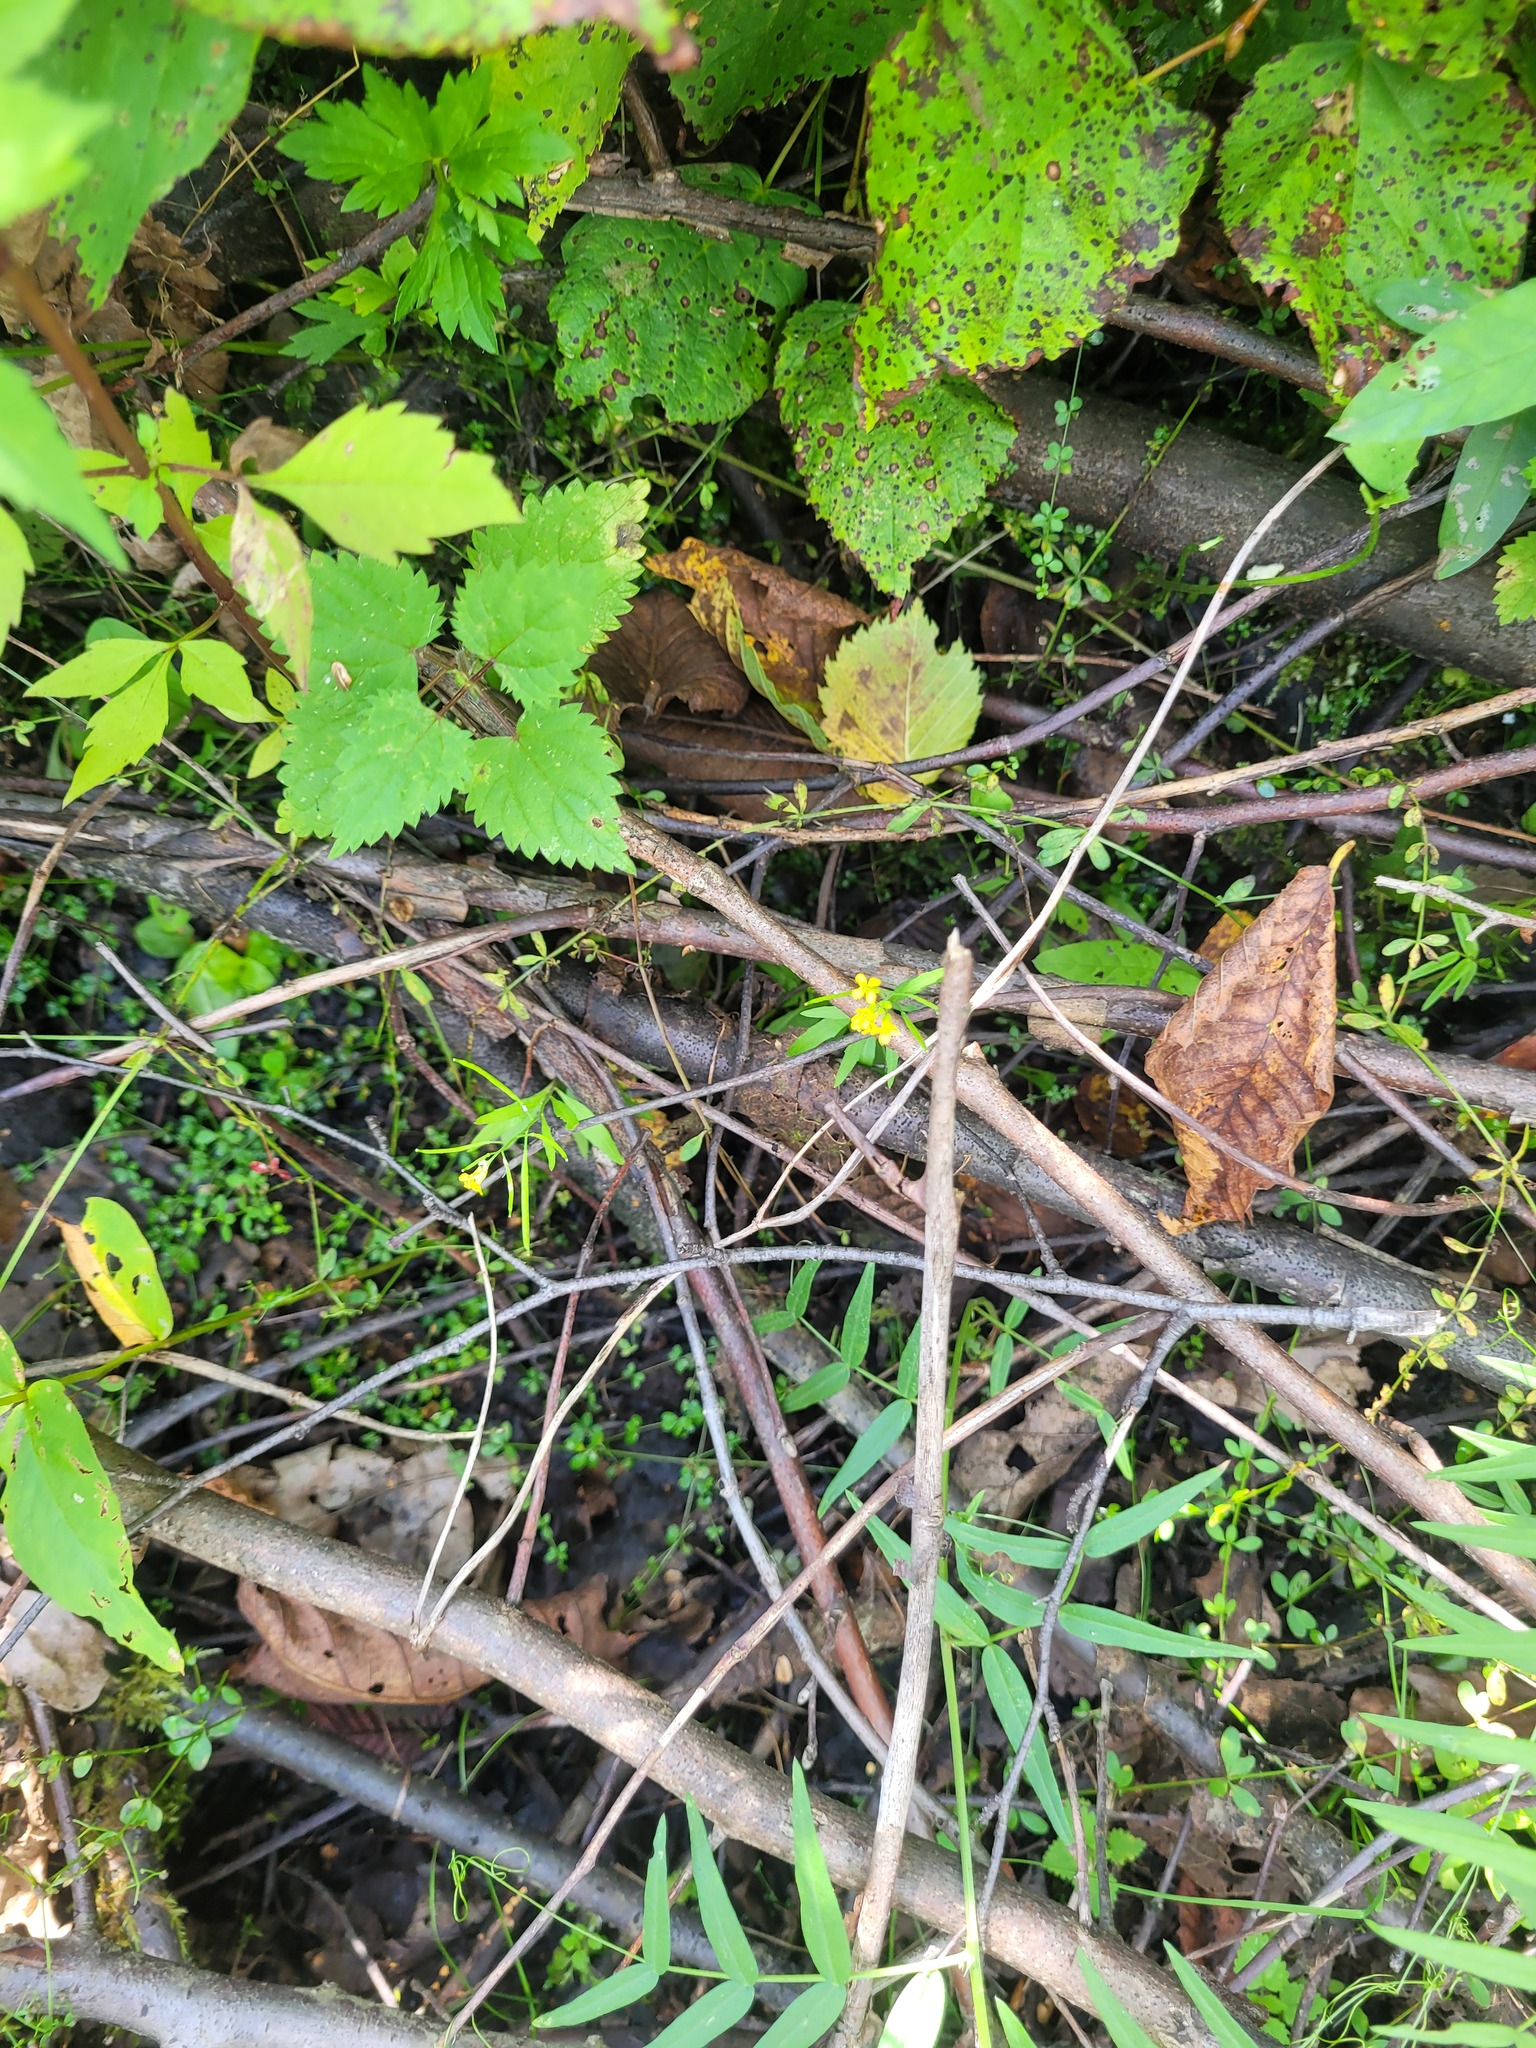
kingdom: Plantae
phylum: Tracheophyta
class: Magnoliopsida
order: Brassicales
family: Brassicaceae
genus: Erysimum
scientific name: Erysimum cheiranthoides
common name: Treacle mustard
